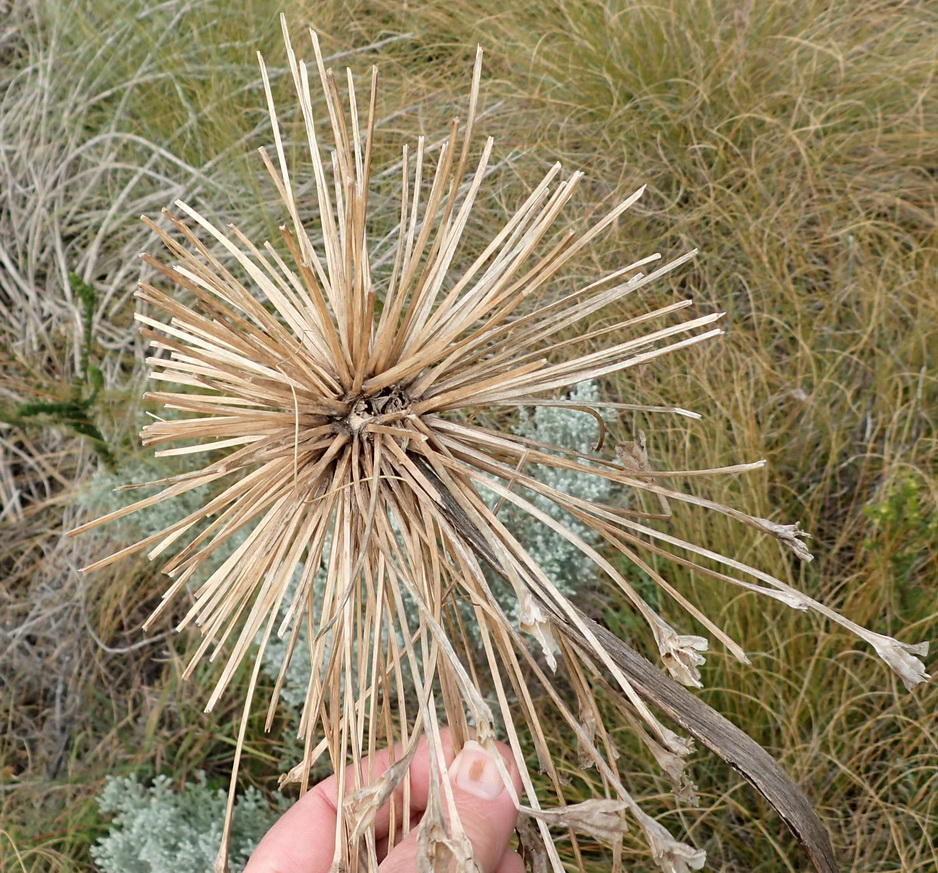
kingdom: Plantae
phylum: Tracheophyta
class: Liliopsida
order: Asparagales
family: Amaryllidaceae
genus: Crossyne
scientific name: Crossyne guttata
